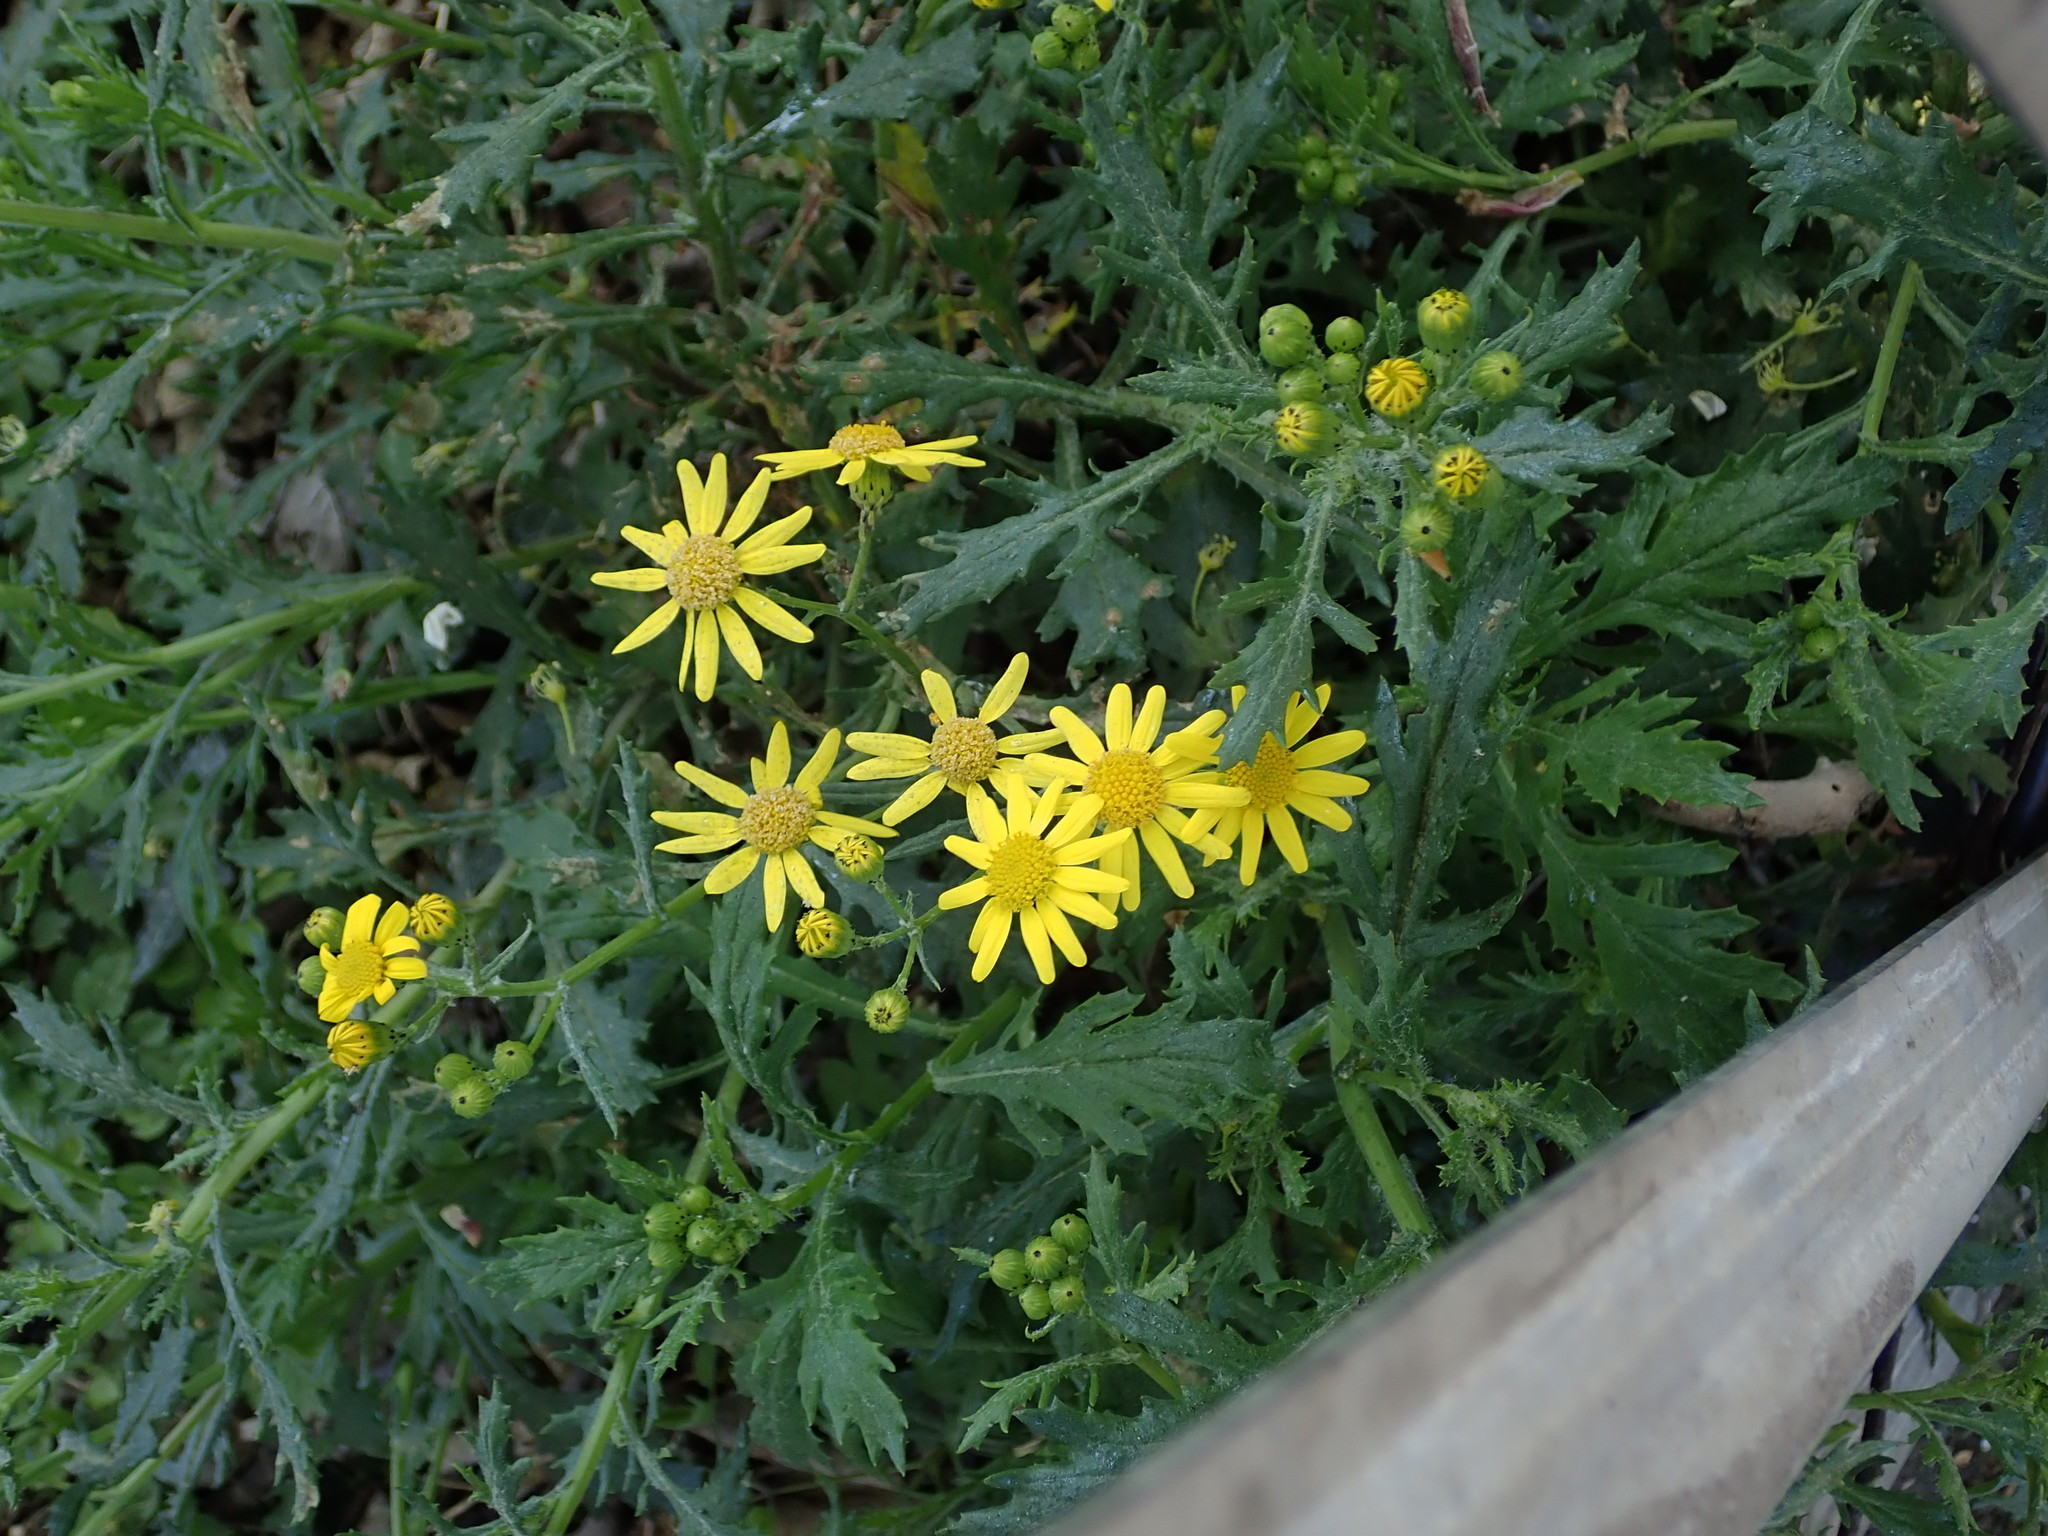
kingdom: Plantae
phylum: Tracheophyta
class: Magnoliopsida
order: Asterales
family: Asteraceae
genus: Senecio
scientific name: Senecio squalidus
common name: Oxford ragwort
